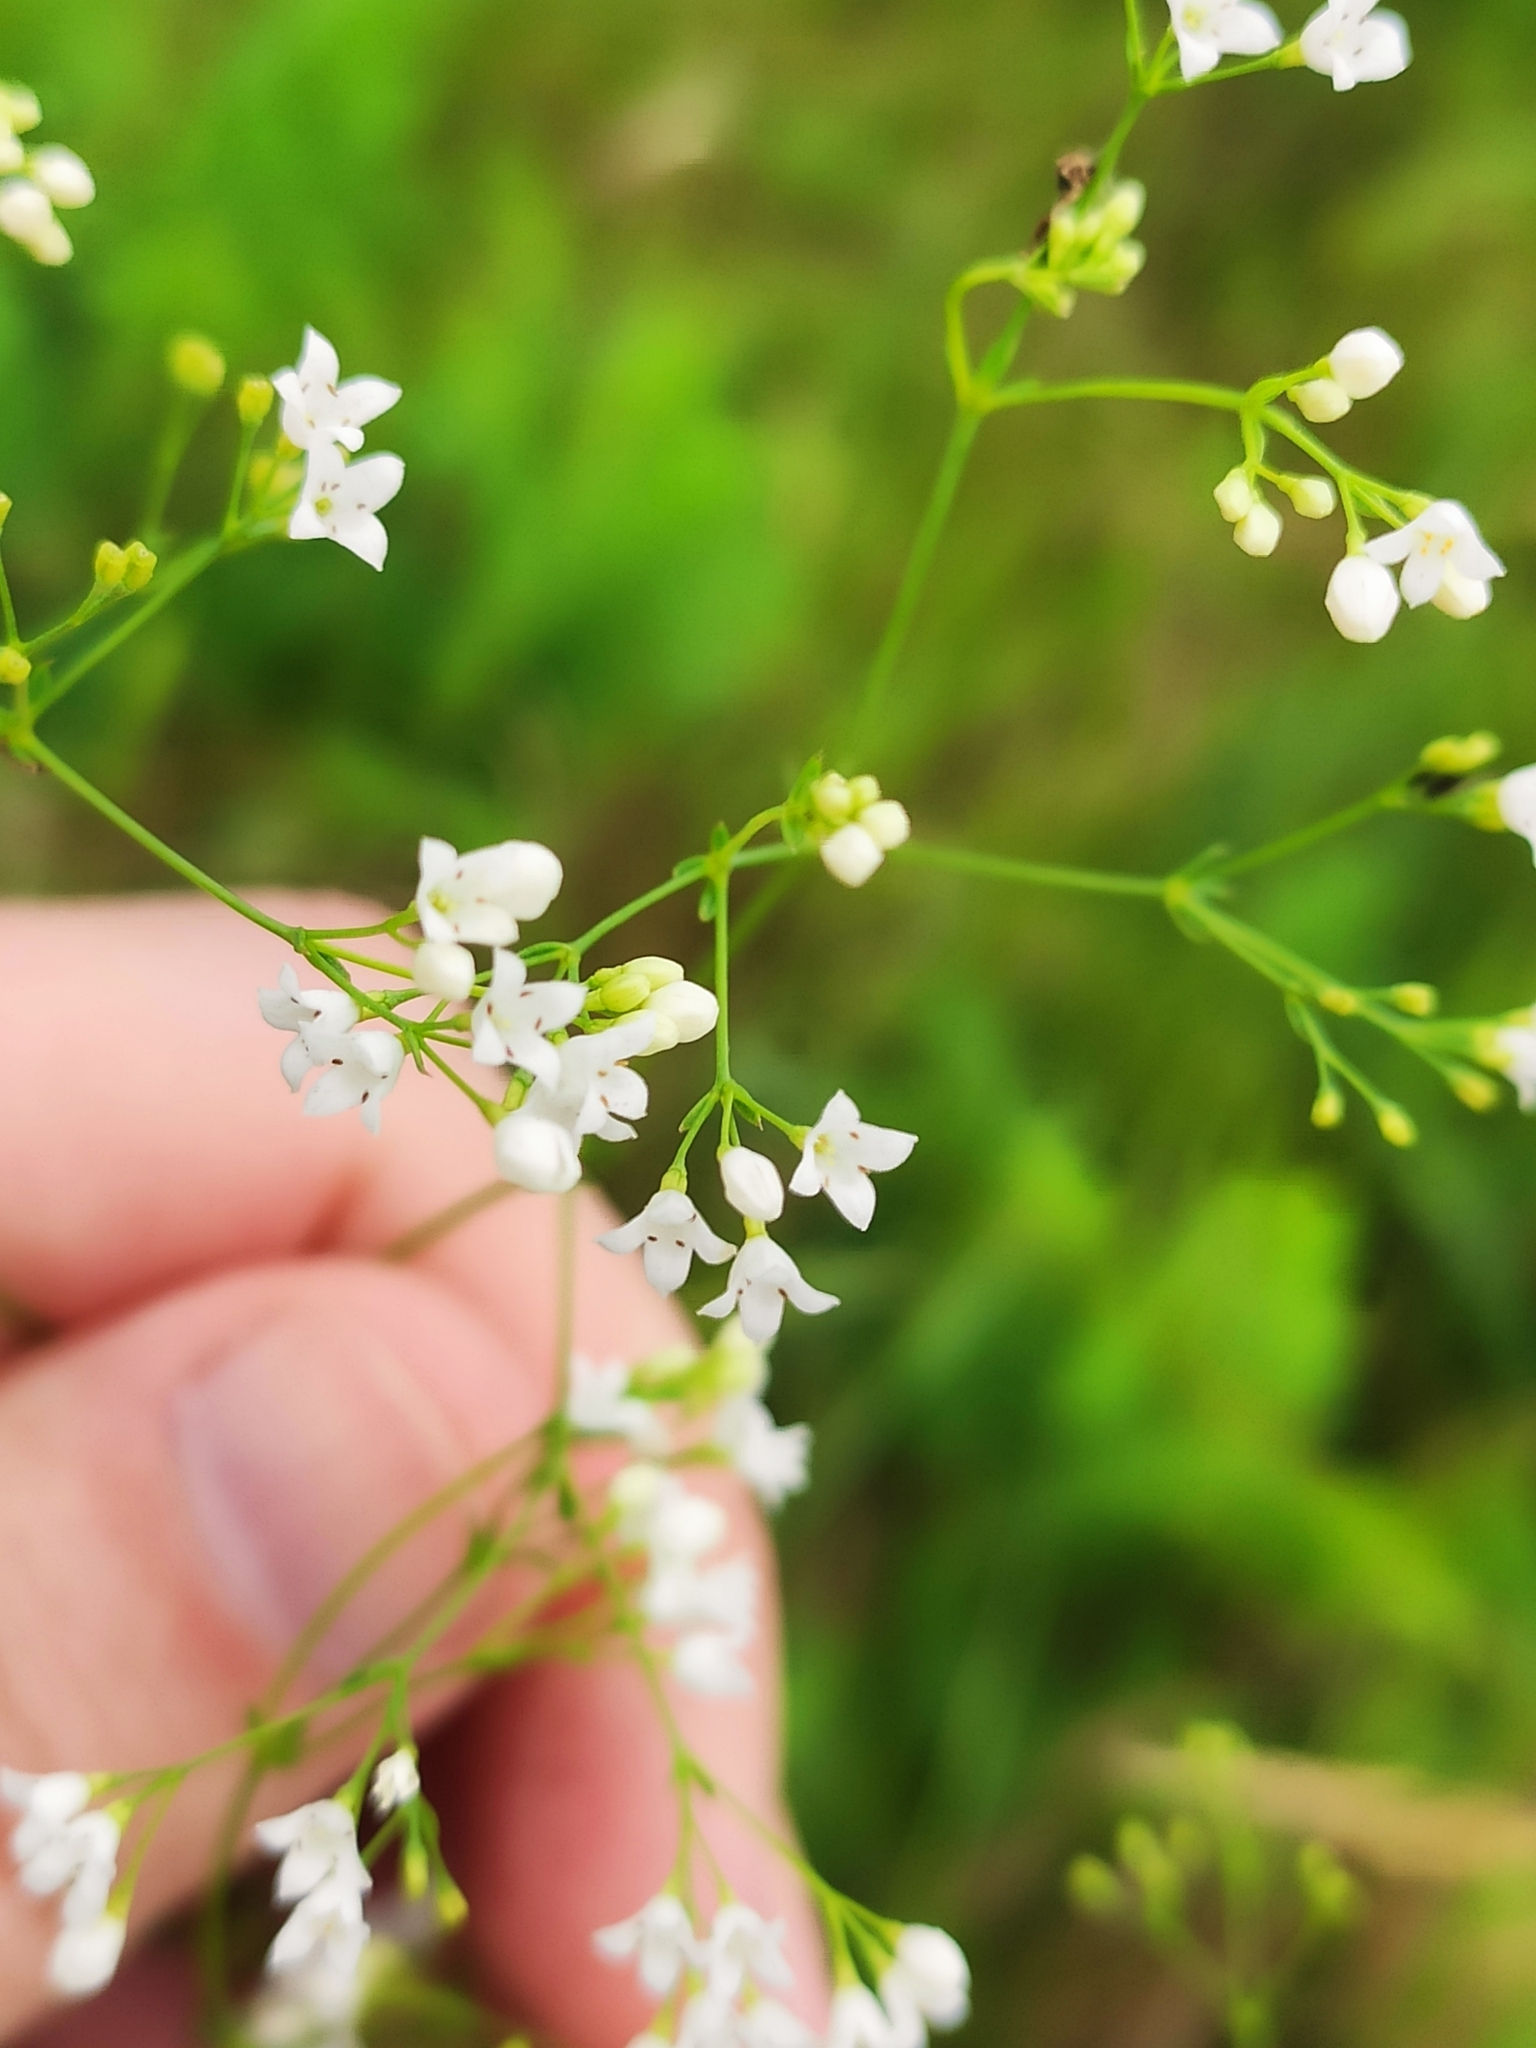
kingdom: Plantae
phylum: Tracheophyta
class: Magnoliopsida
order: Gentianales
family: Rubiaceae
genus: Galium
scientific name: Galium octonarium
